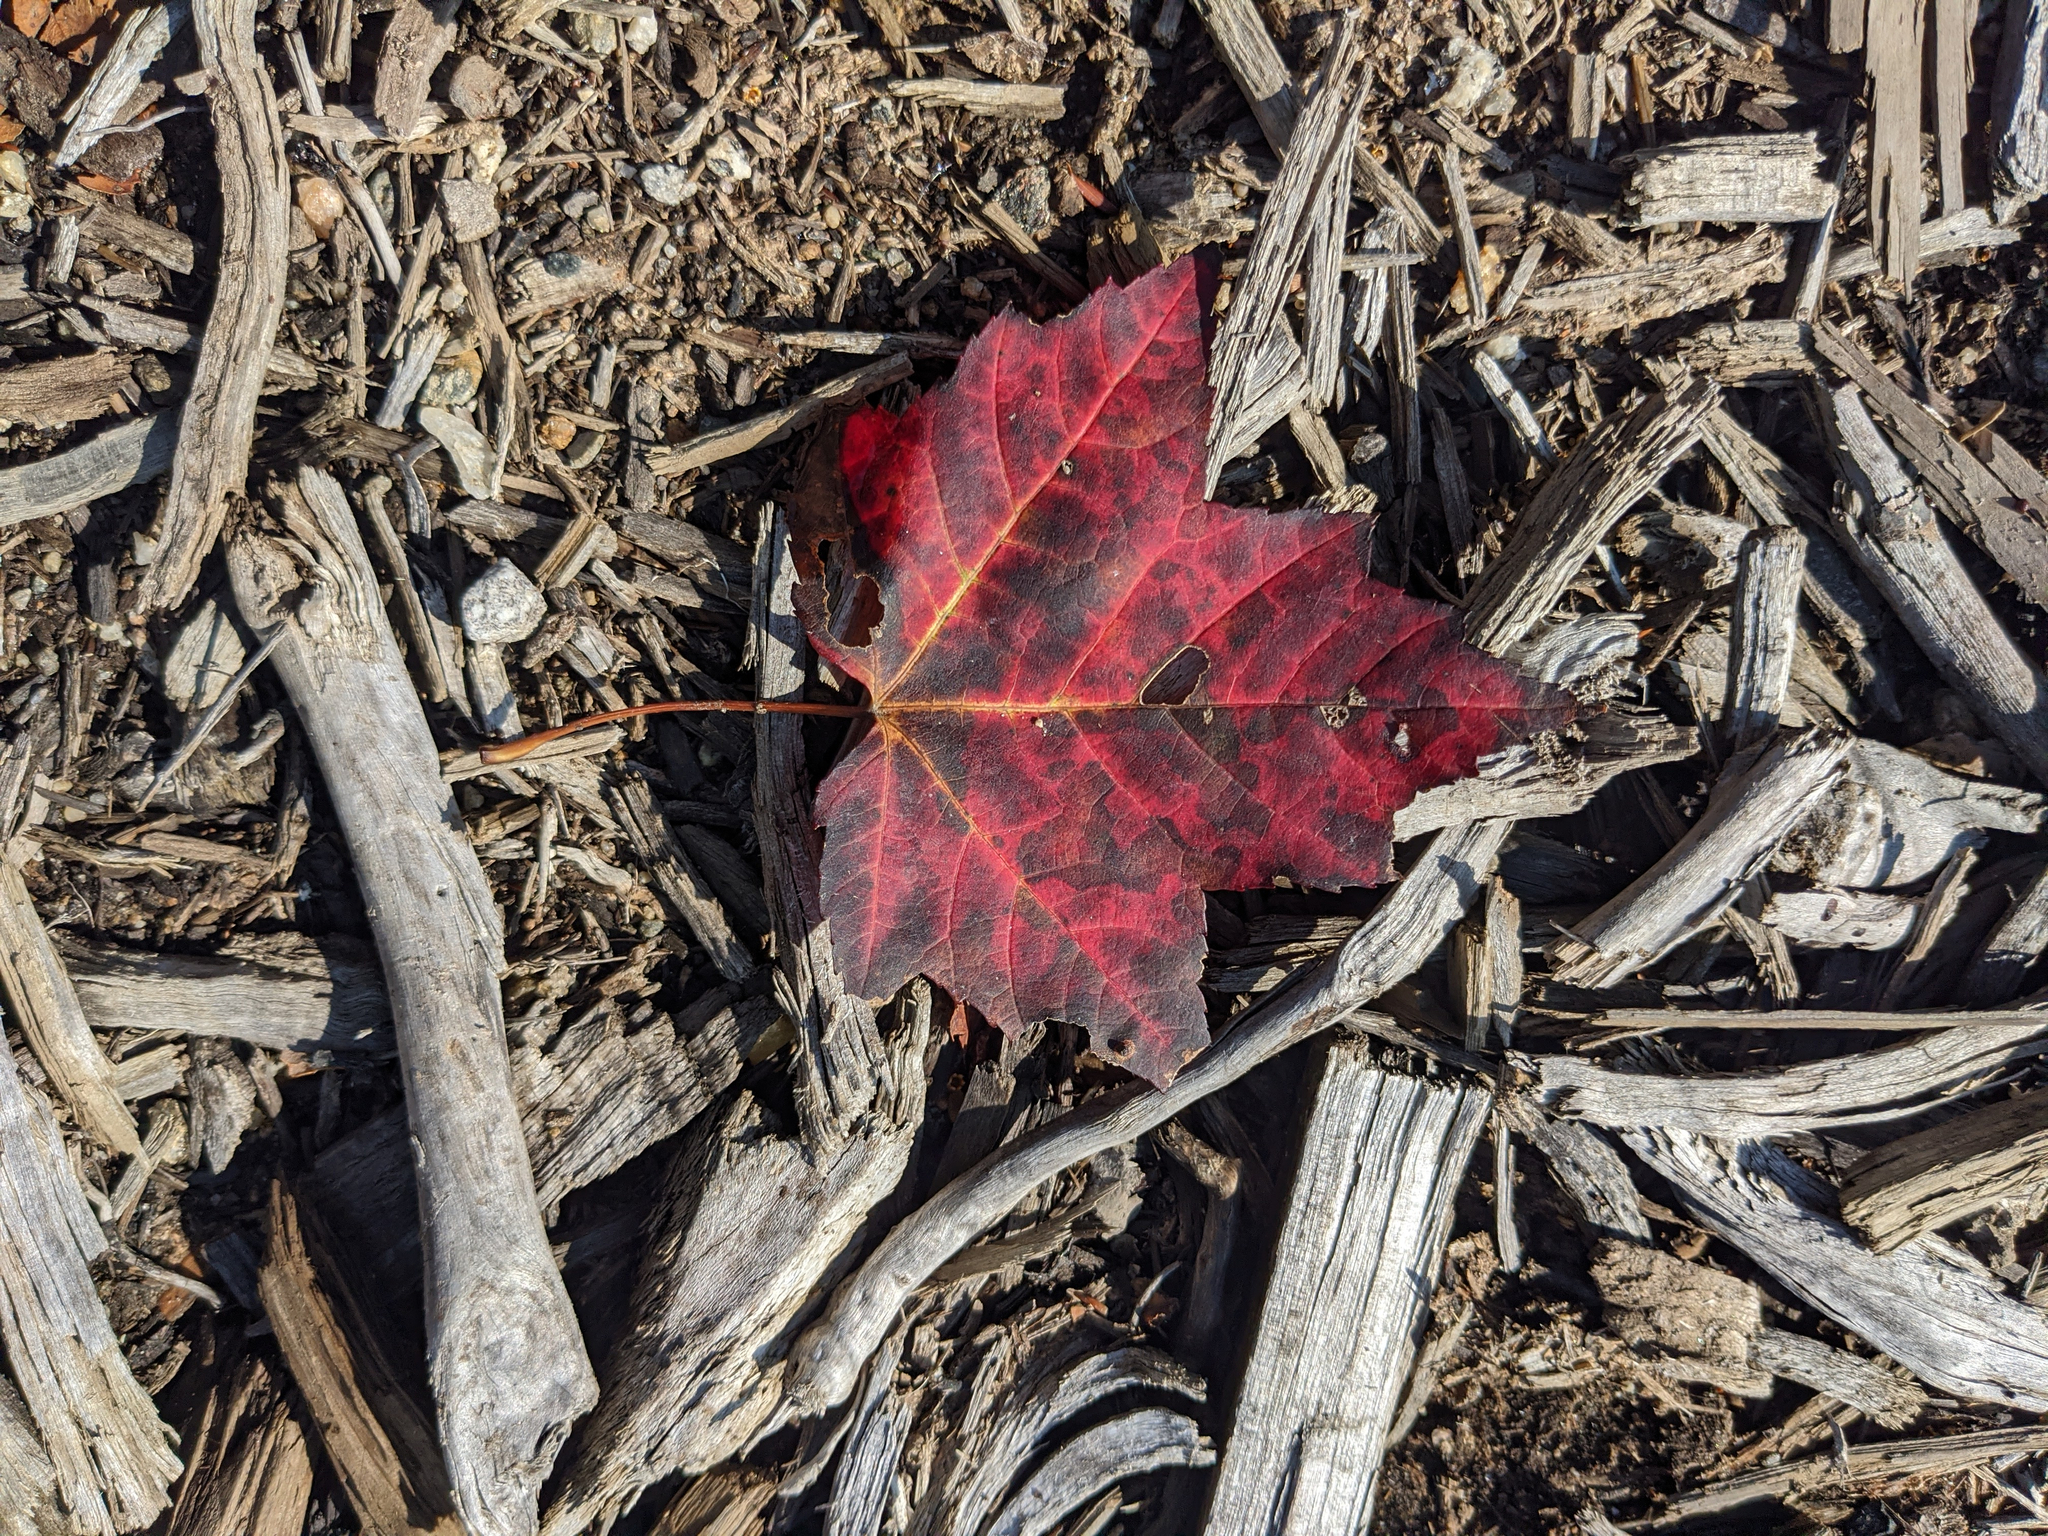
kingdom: Plantae
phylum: Tracheophyta
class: Magnoliopsida
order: Sapindales
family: Sapindaceae
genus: Acer
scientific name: Acer rubrum
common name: Red maple
